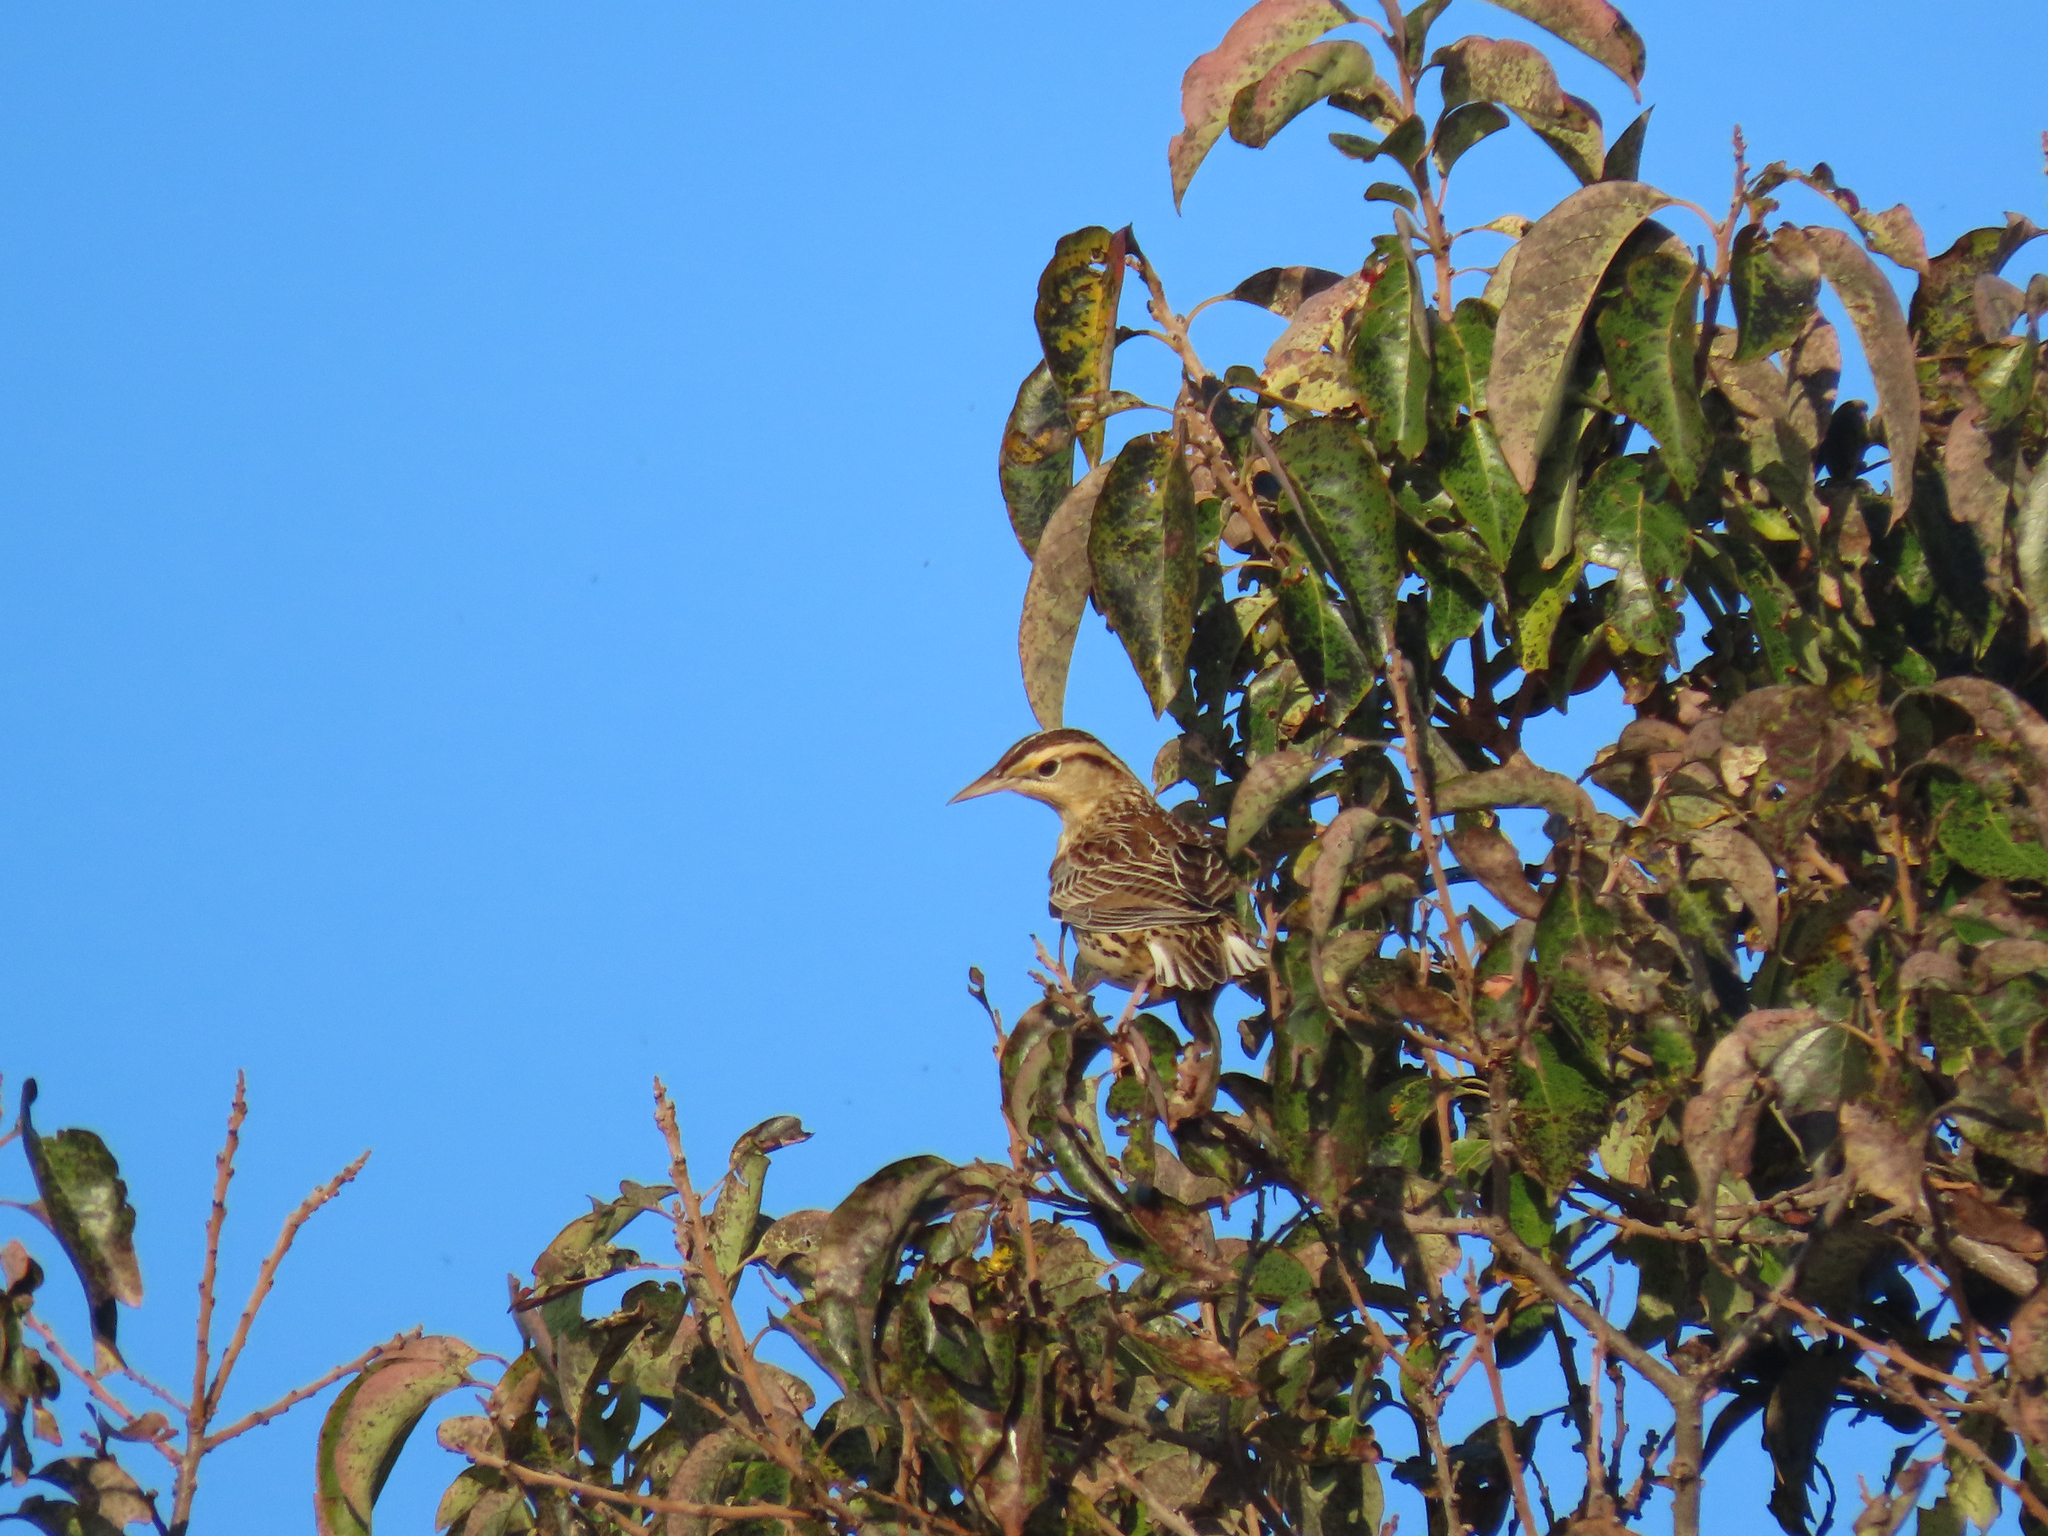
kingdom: Animalia
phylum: Chordata
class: Aves
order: Passeriformes
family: Icteridae
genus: Sturnella
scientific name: Sturnella magna
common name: Eastern meadowlark
